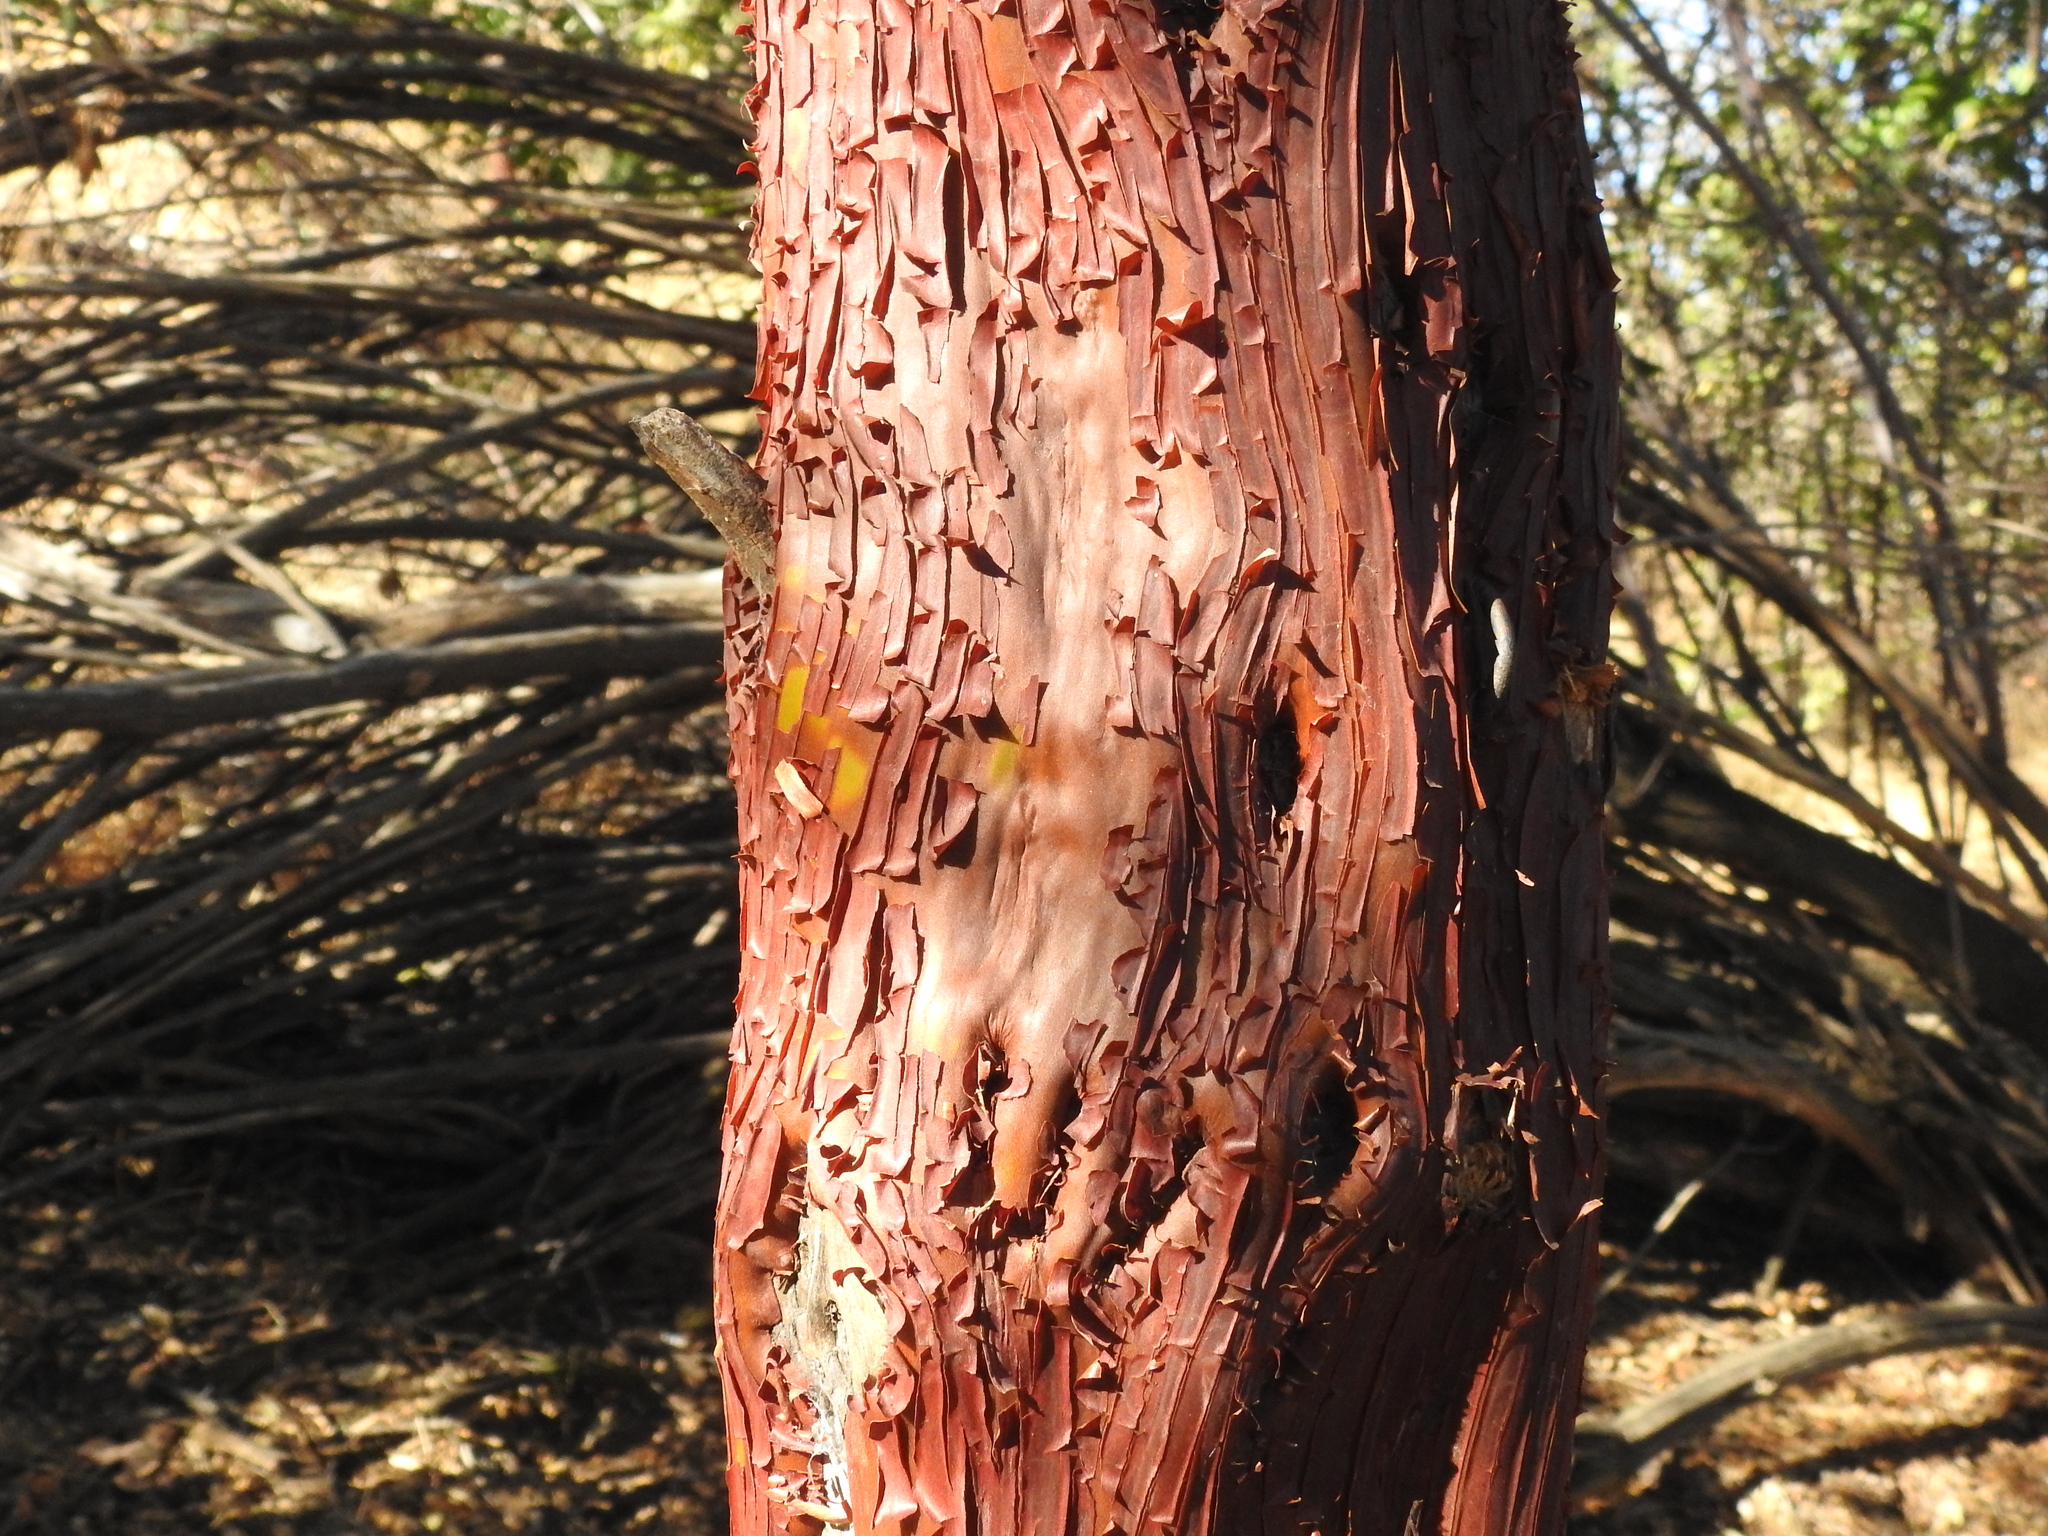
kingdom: Plantae
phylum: Tracheophyta
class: Magnoliopsida
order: Ericales
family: Ericaceae
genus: Arctostaphylos
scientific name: Arctostaphylos manzanita
